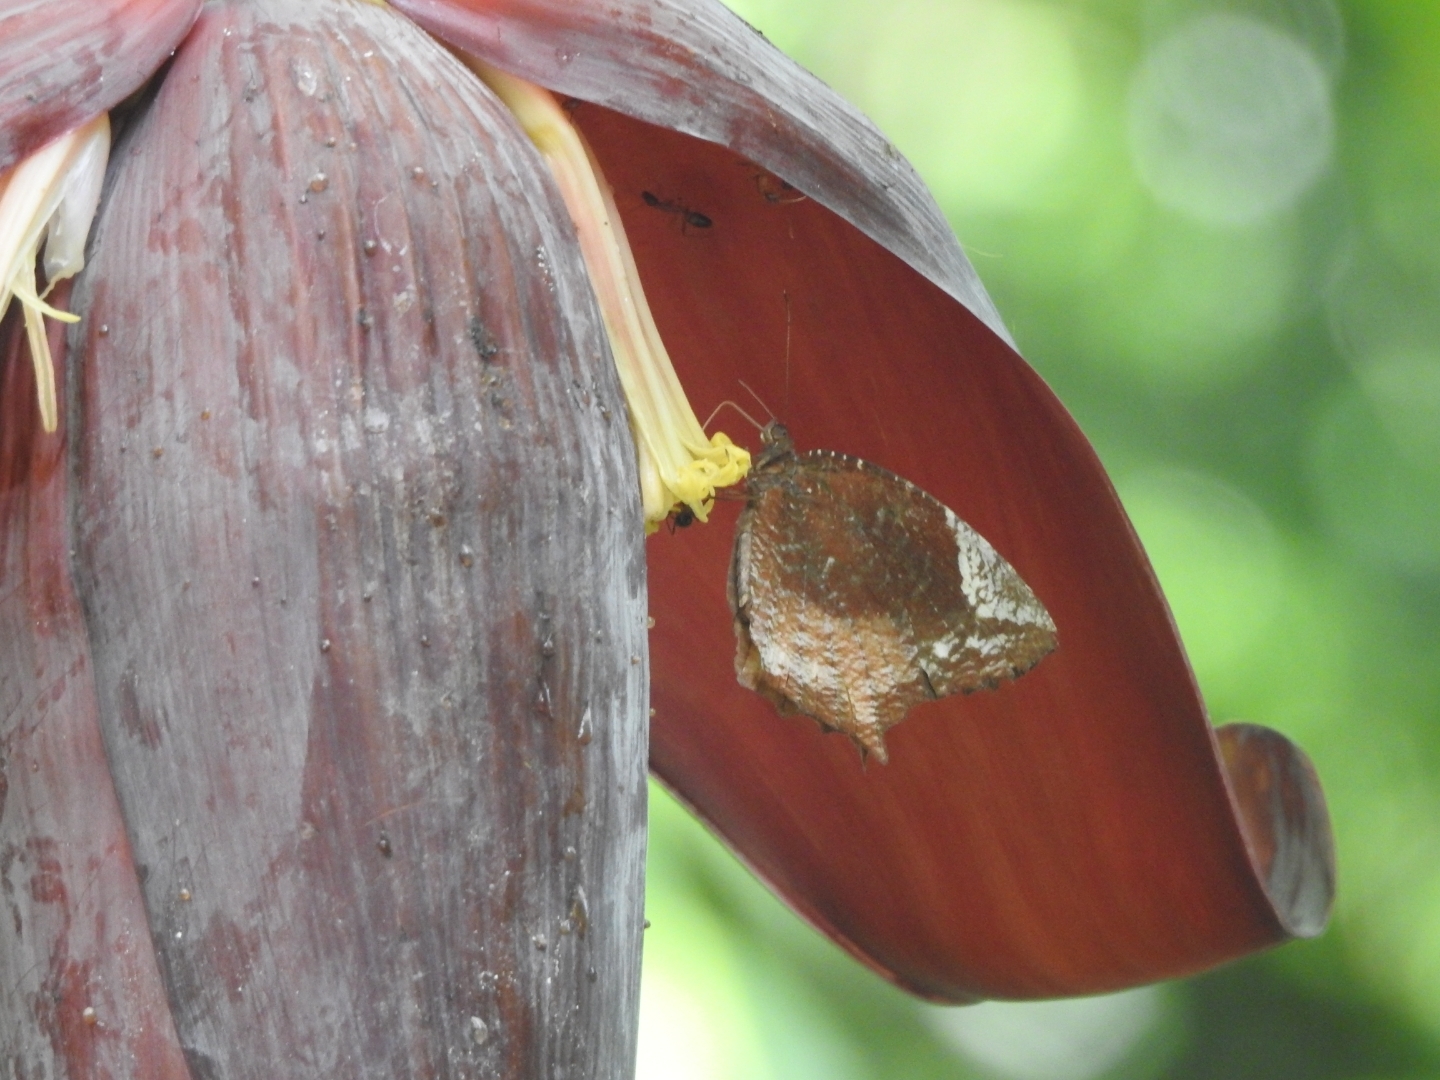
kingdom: Animalia
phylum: Arthropoda
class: Insecta
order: Lepidoptera
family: Nymphalidae
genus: Elymnias
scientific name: Elymnias caudata
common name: Tailed palmfly
